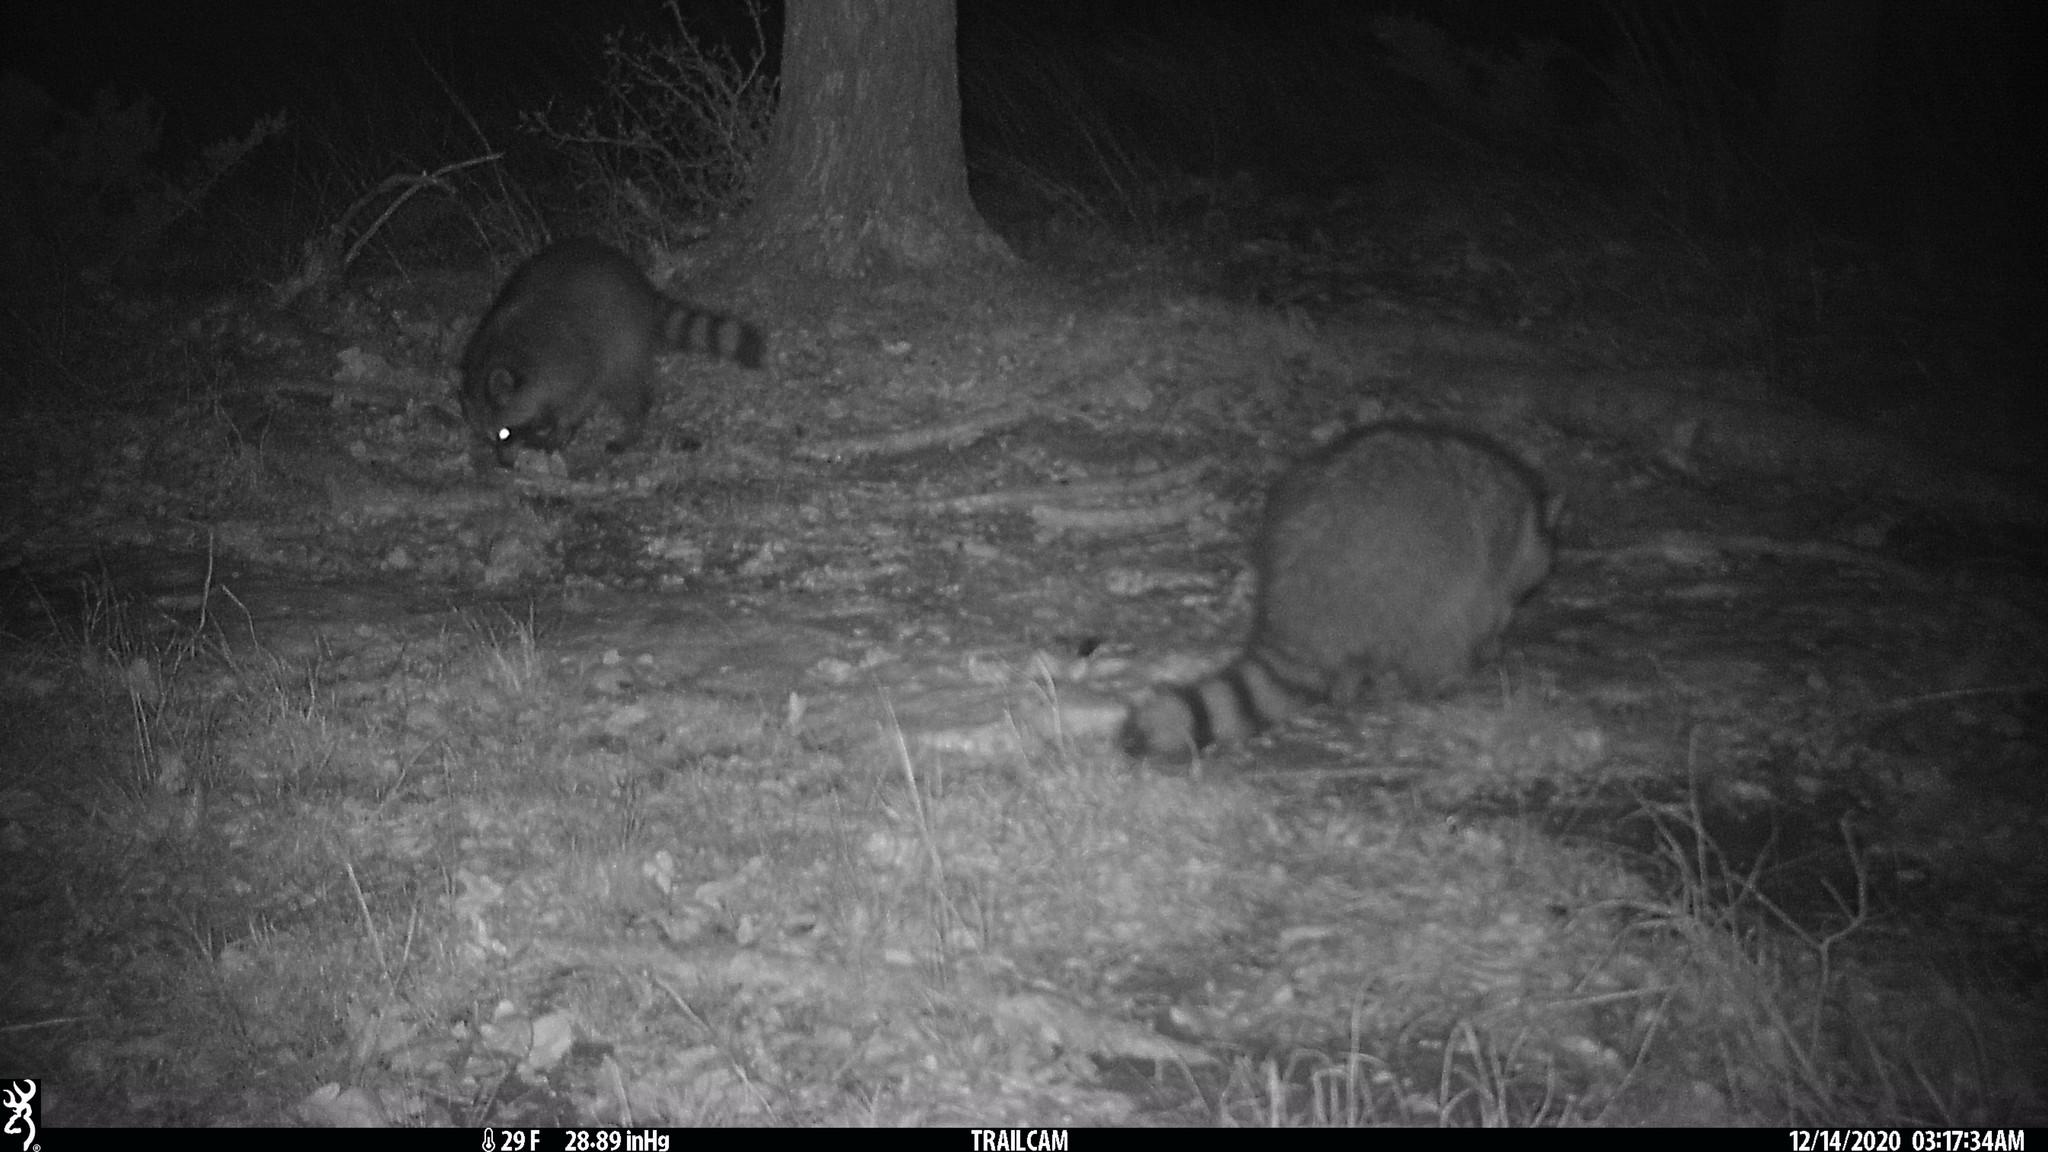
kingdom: Animalia
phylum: Chordata
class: Mammalia
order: Carnivora
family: Procyonidae
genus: Procyon
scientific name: Procyon lotor
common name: Raccoon
